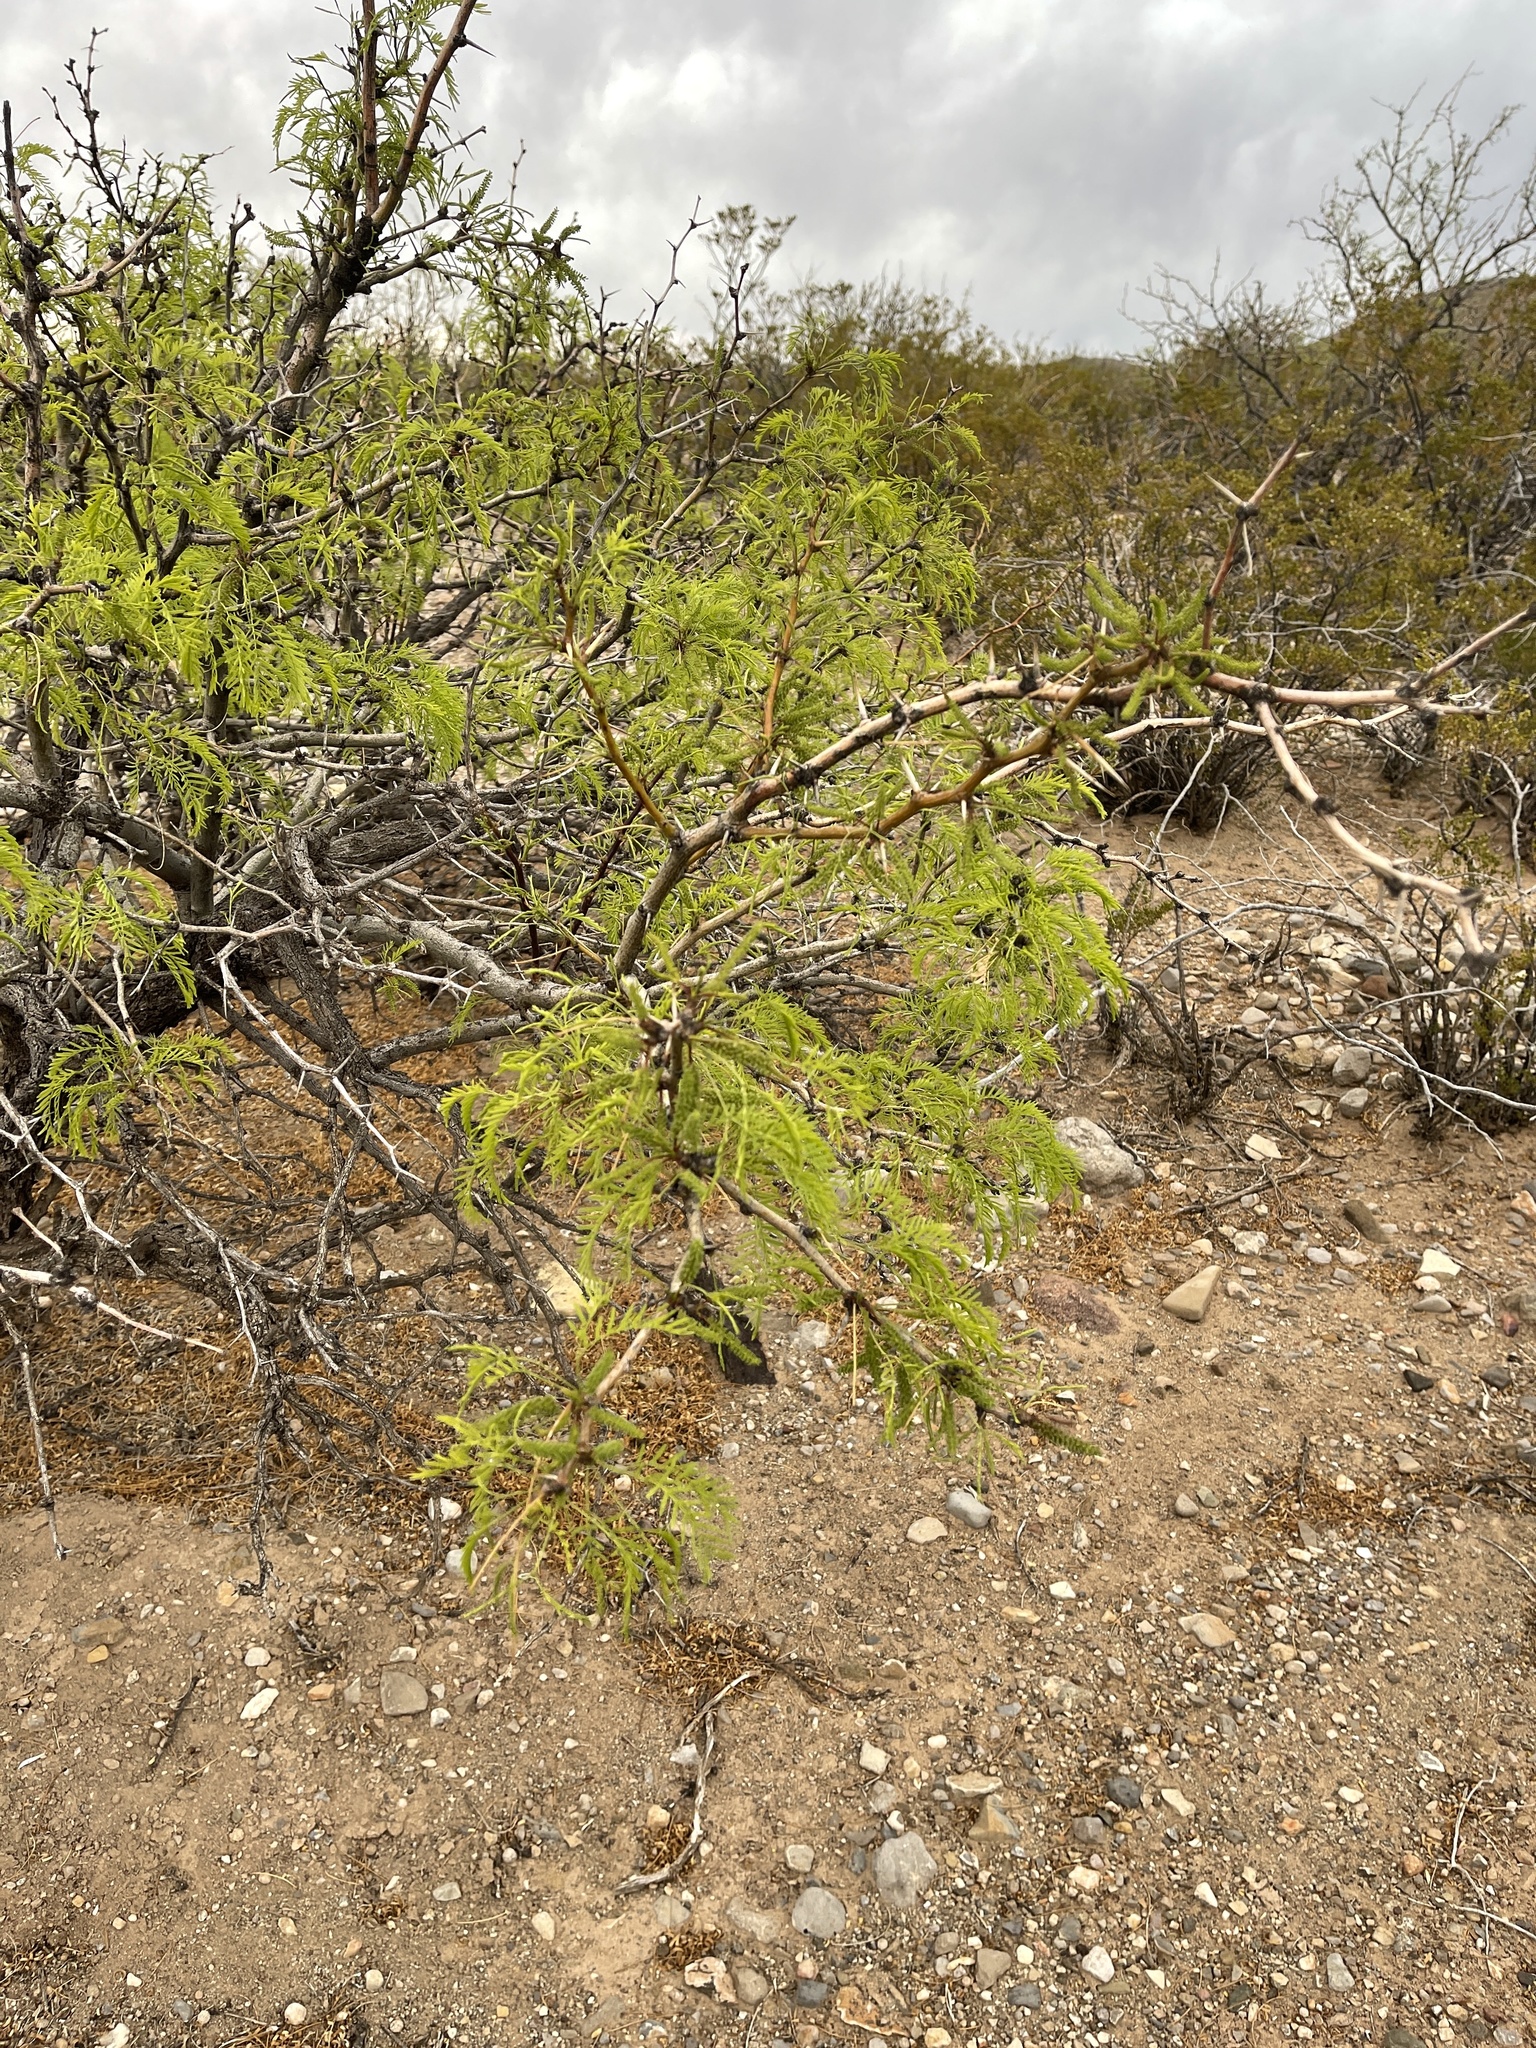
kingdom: Plantae
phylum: Tracheophyta
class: Magnoliopsida
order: Fabales
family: Fabaceae
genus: Prosopis
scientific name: Prosopis glandulosa
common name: Honey mesquite
